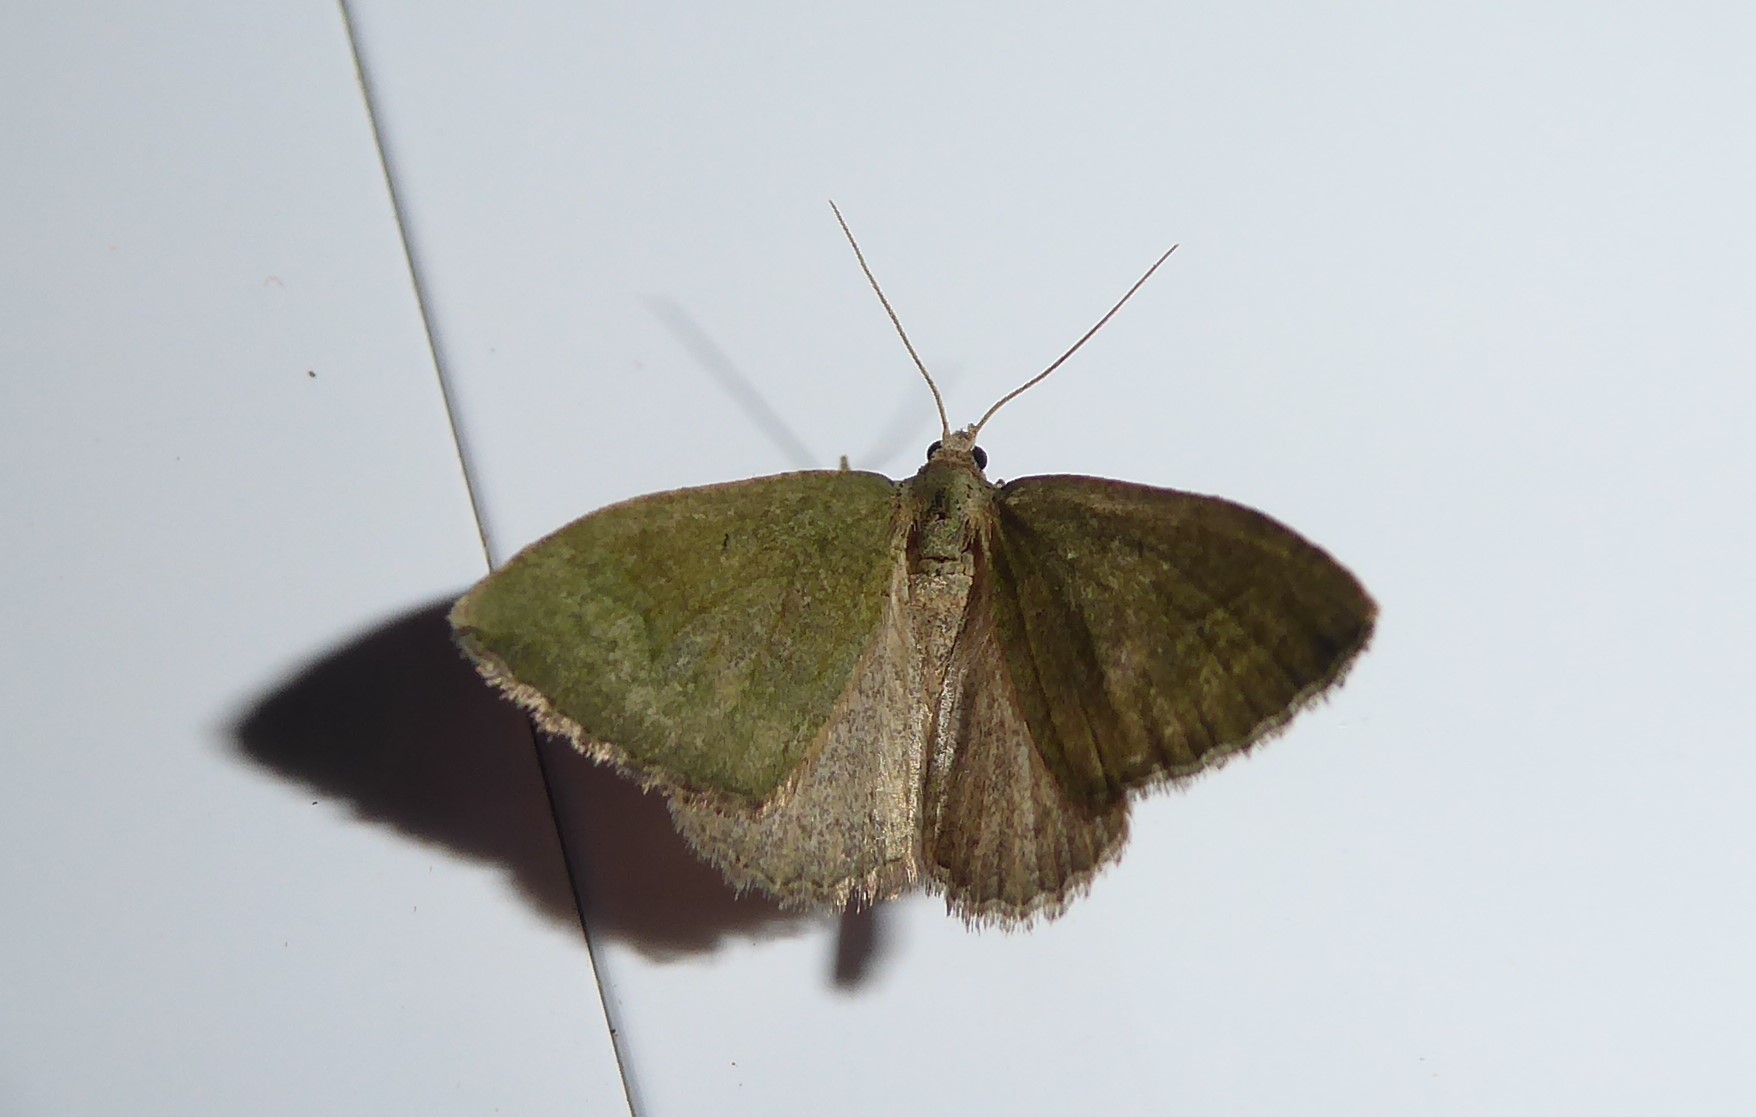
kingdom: Animalia
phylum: Arthropoda
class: Insecta
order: Lepidoptera
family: Geometridae
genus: Epyaxa
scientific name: Epyaxa rosearia
